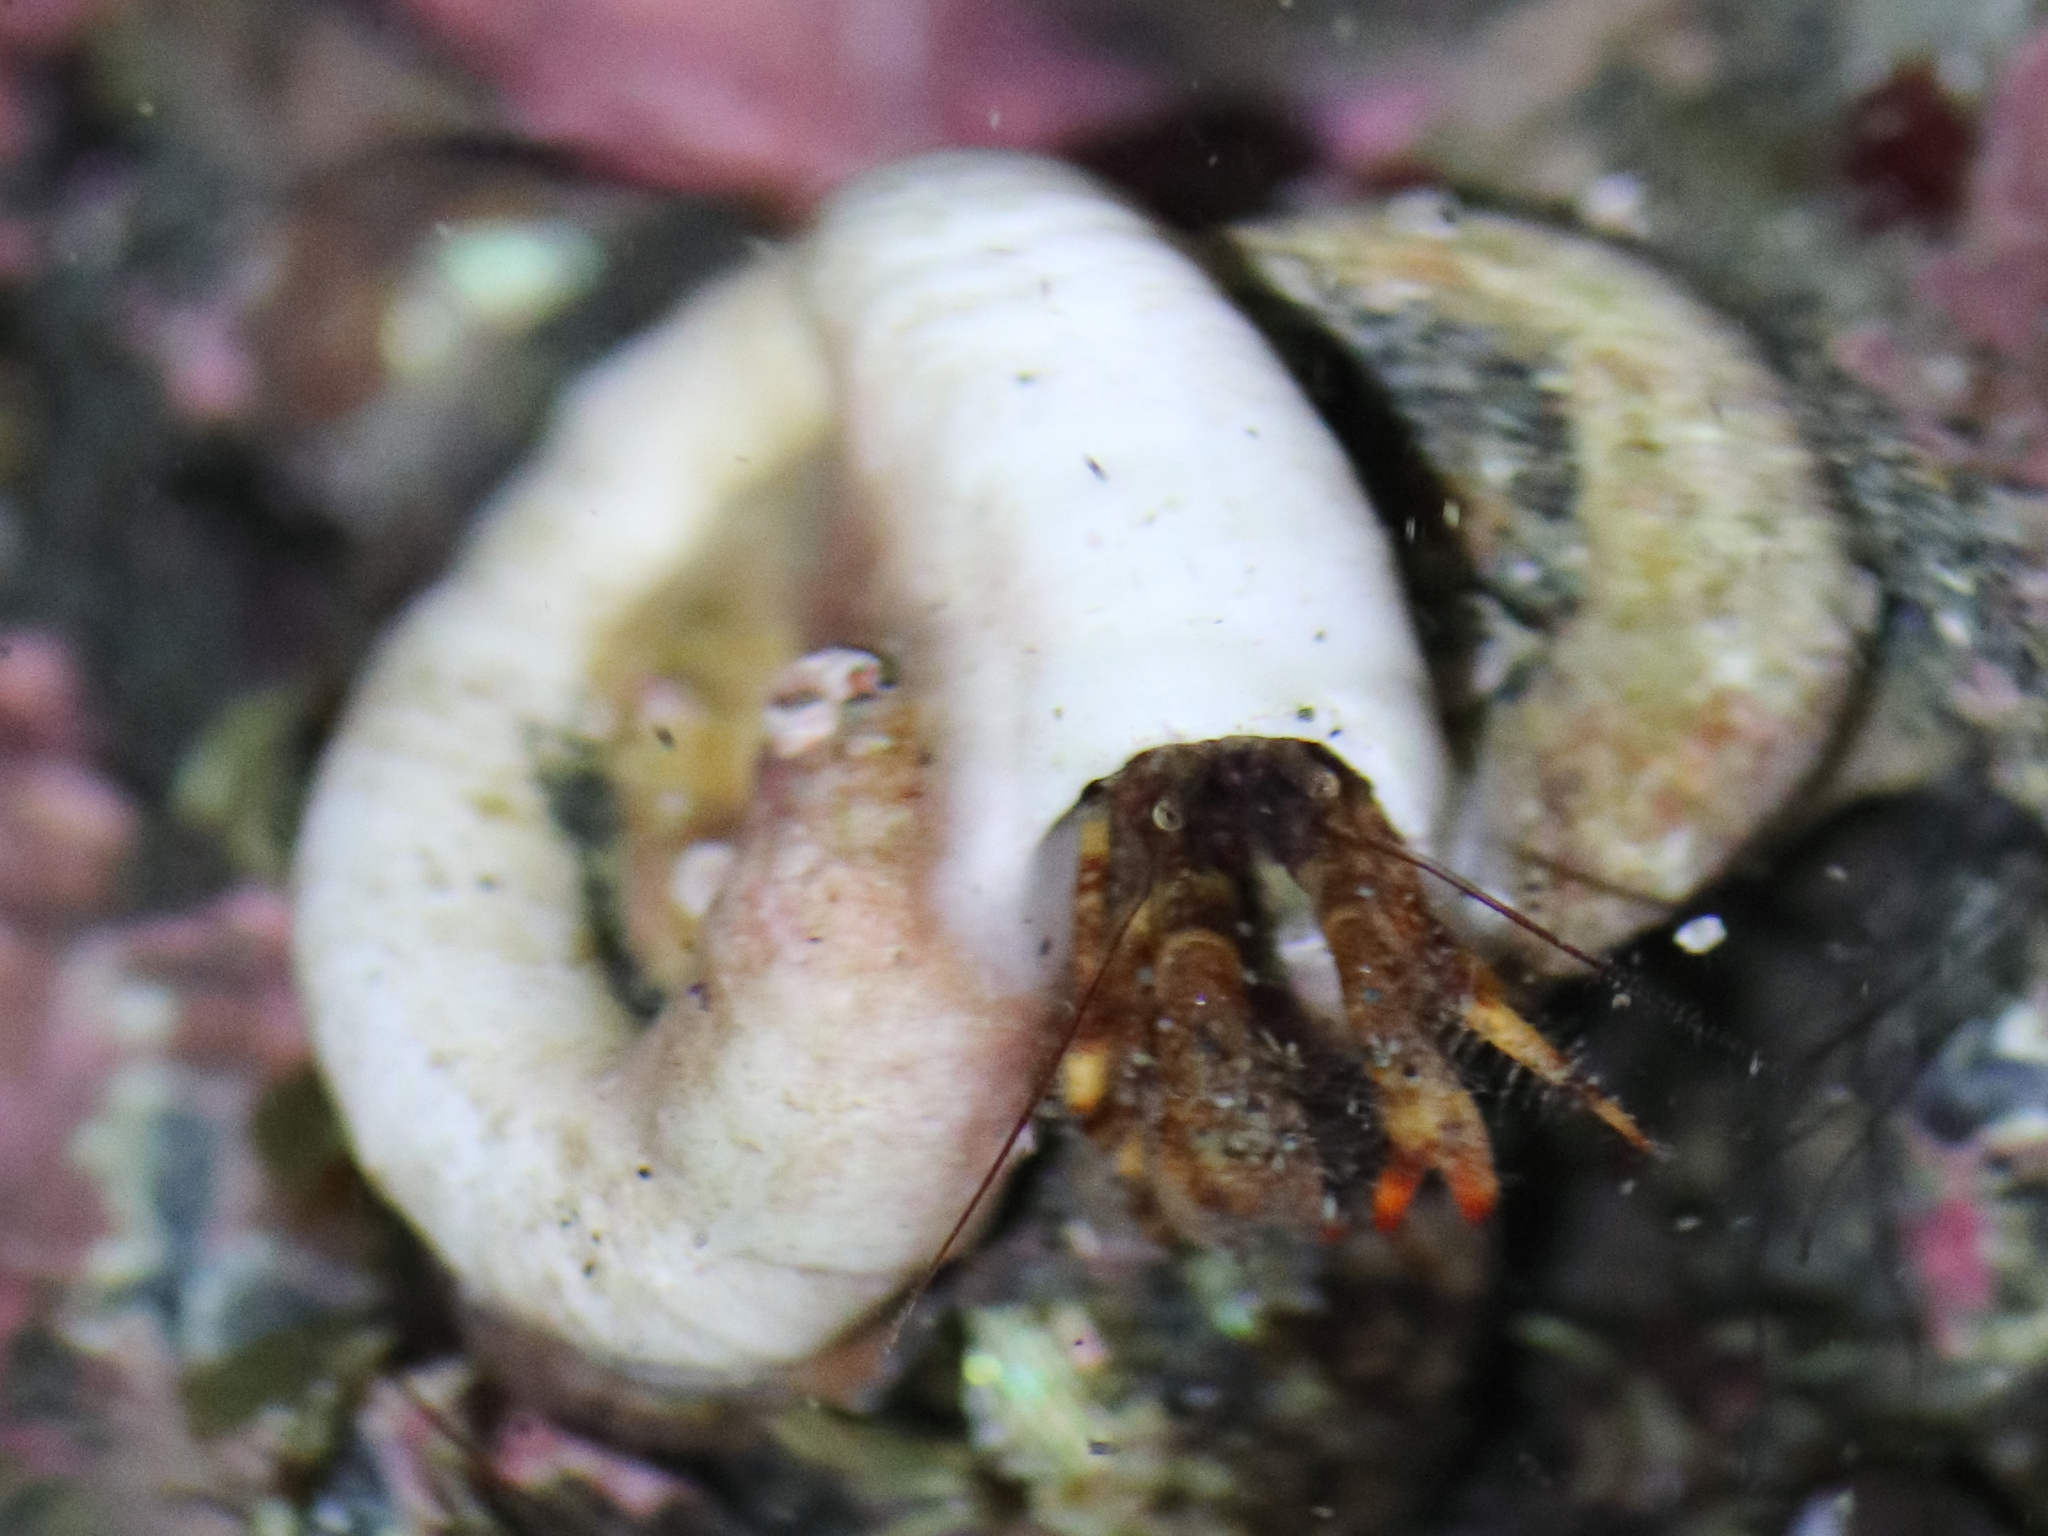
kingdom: Animalia
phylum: Arthropoda
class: Malacostraca
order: Decapoda
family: Paguridae
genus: Discorsopagurus
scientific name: Discorsopagurus schmitti
